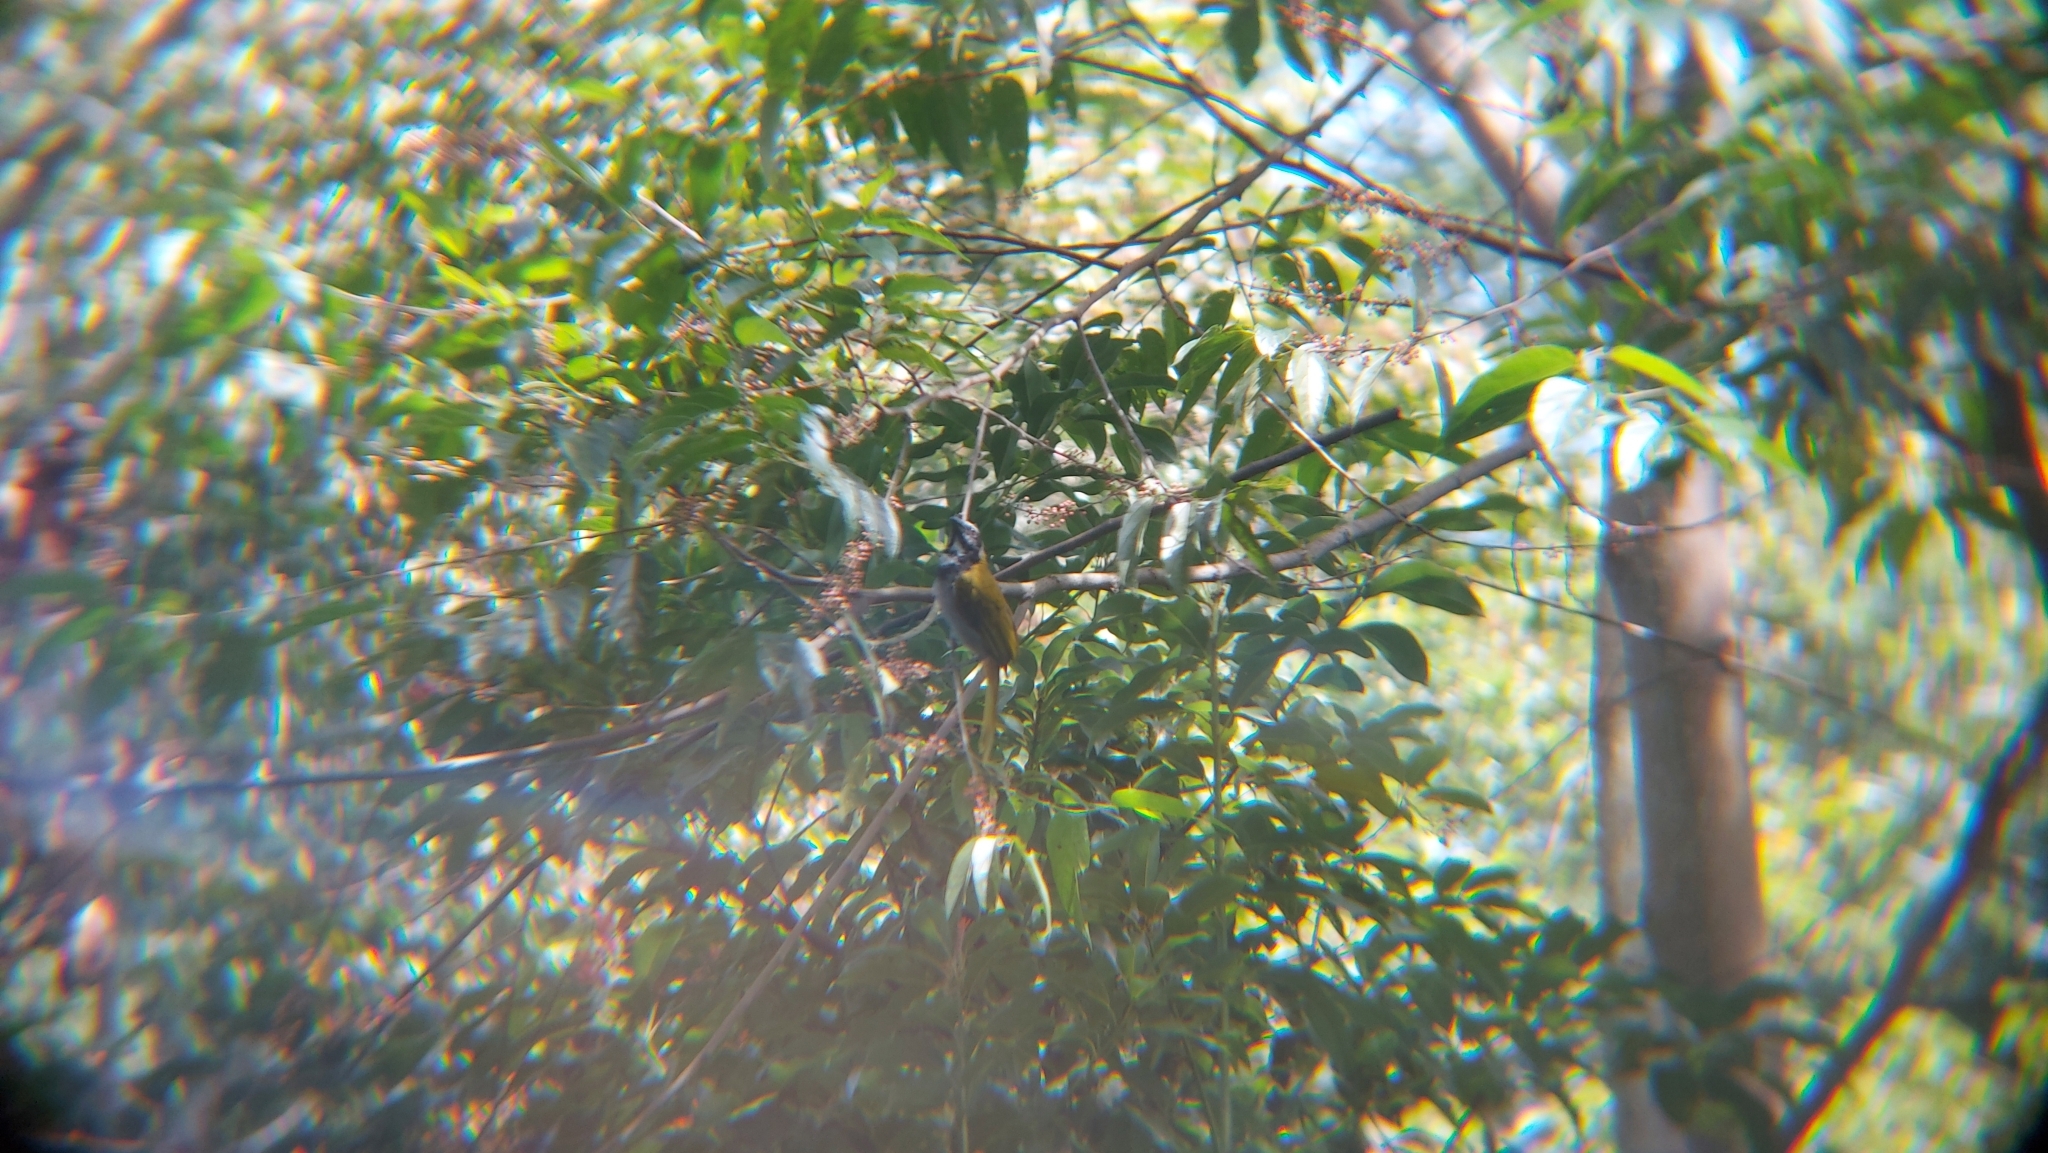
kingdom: Animalia
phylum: Chordata
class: Aves
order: Passeriformes
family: Thraupidae
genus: Saltator
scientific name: Saltator atriceps
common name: Black-headed saltator
